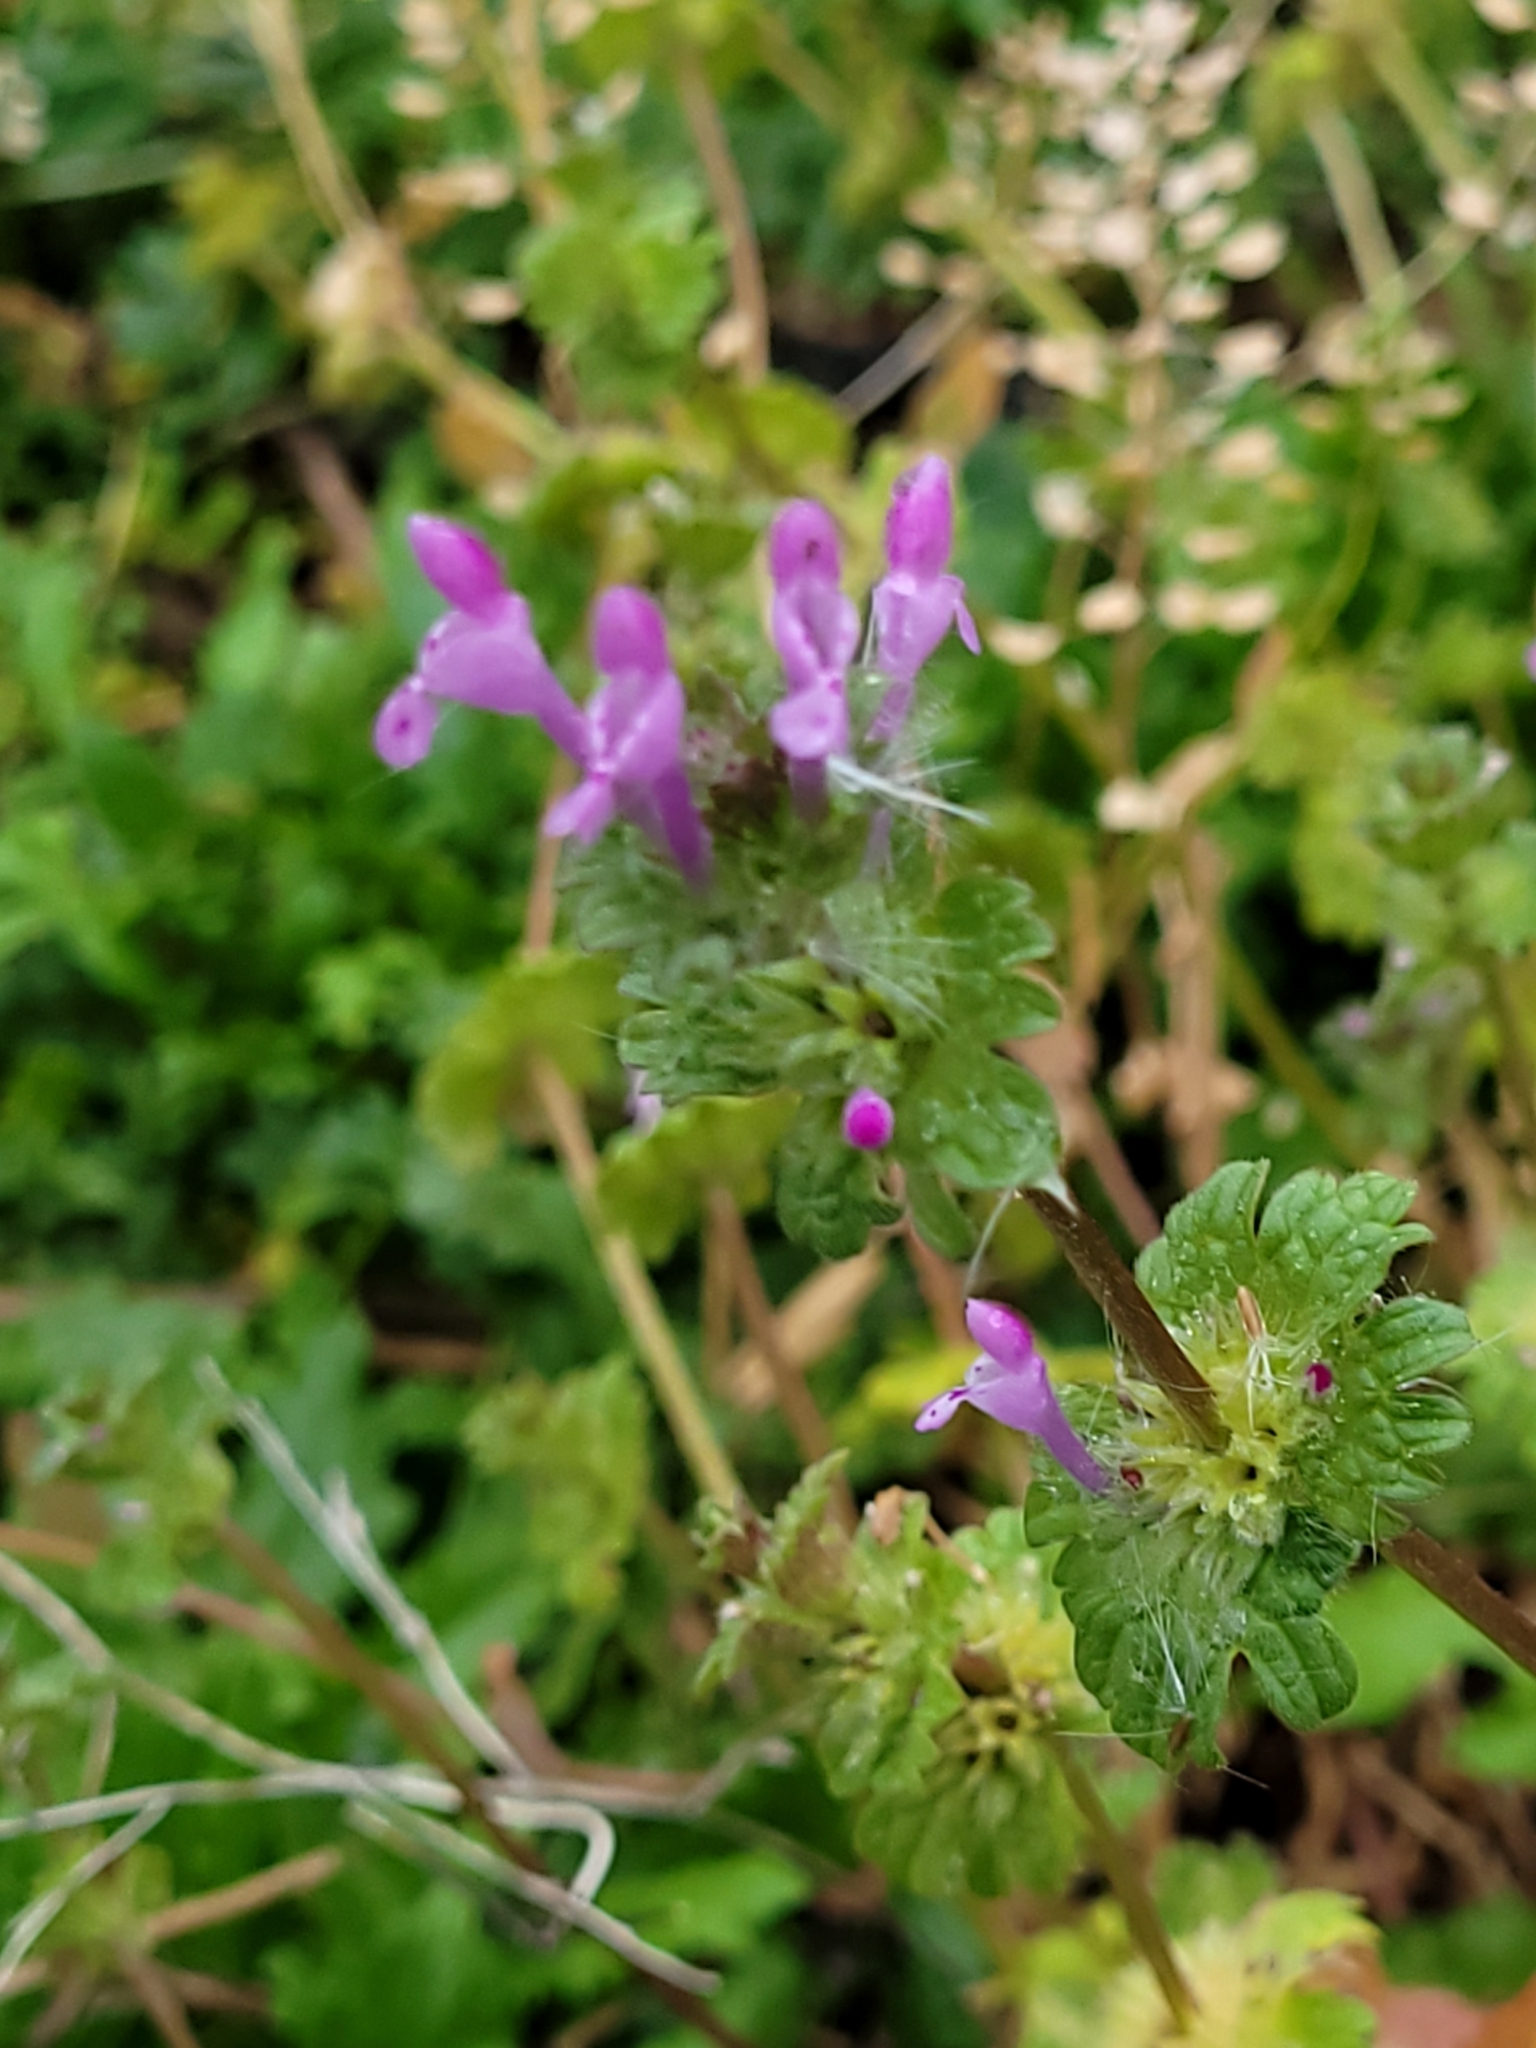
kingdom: Plantae
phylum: Tracheophyta
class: Magnoliopsida
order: Lamiales
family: Lamiaceae
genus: Lamium
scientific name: Lamium amplexicaule
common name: Henbit dead-nettle
